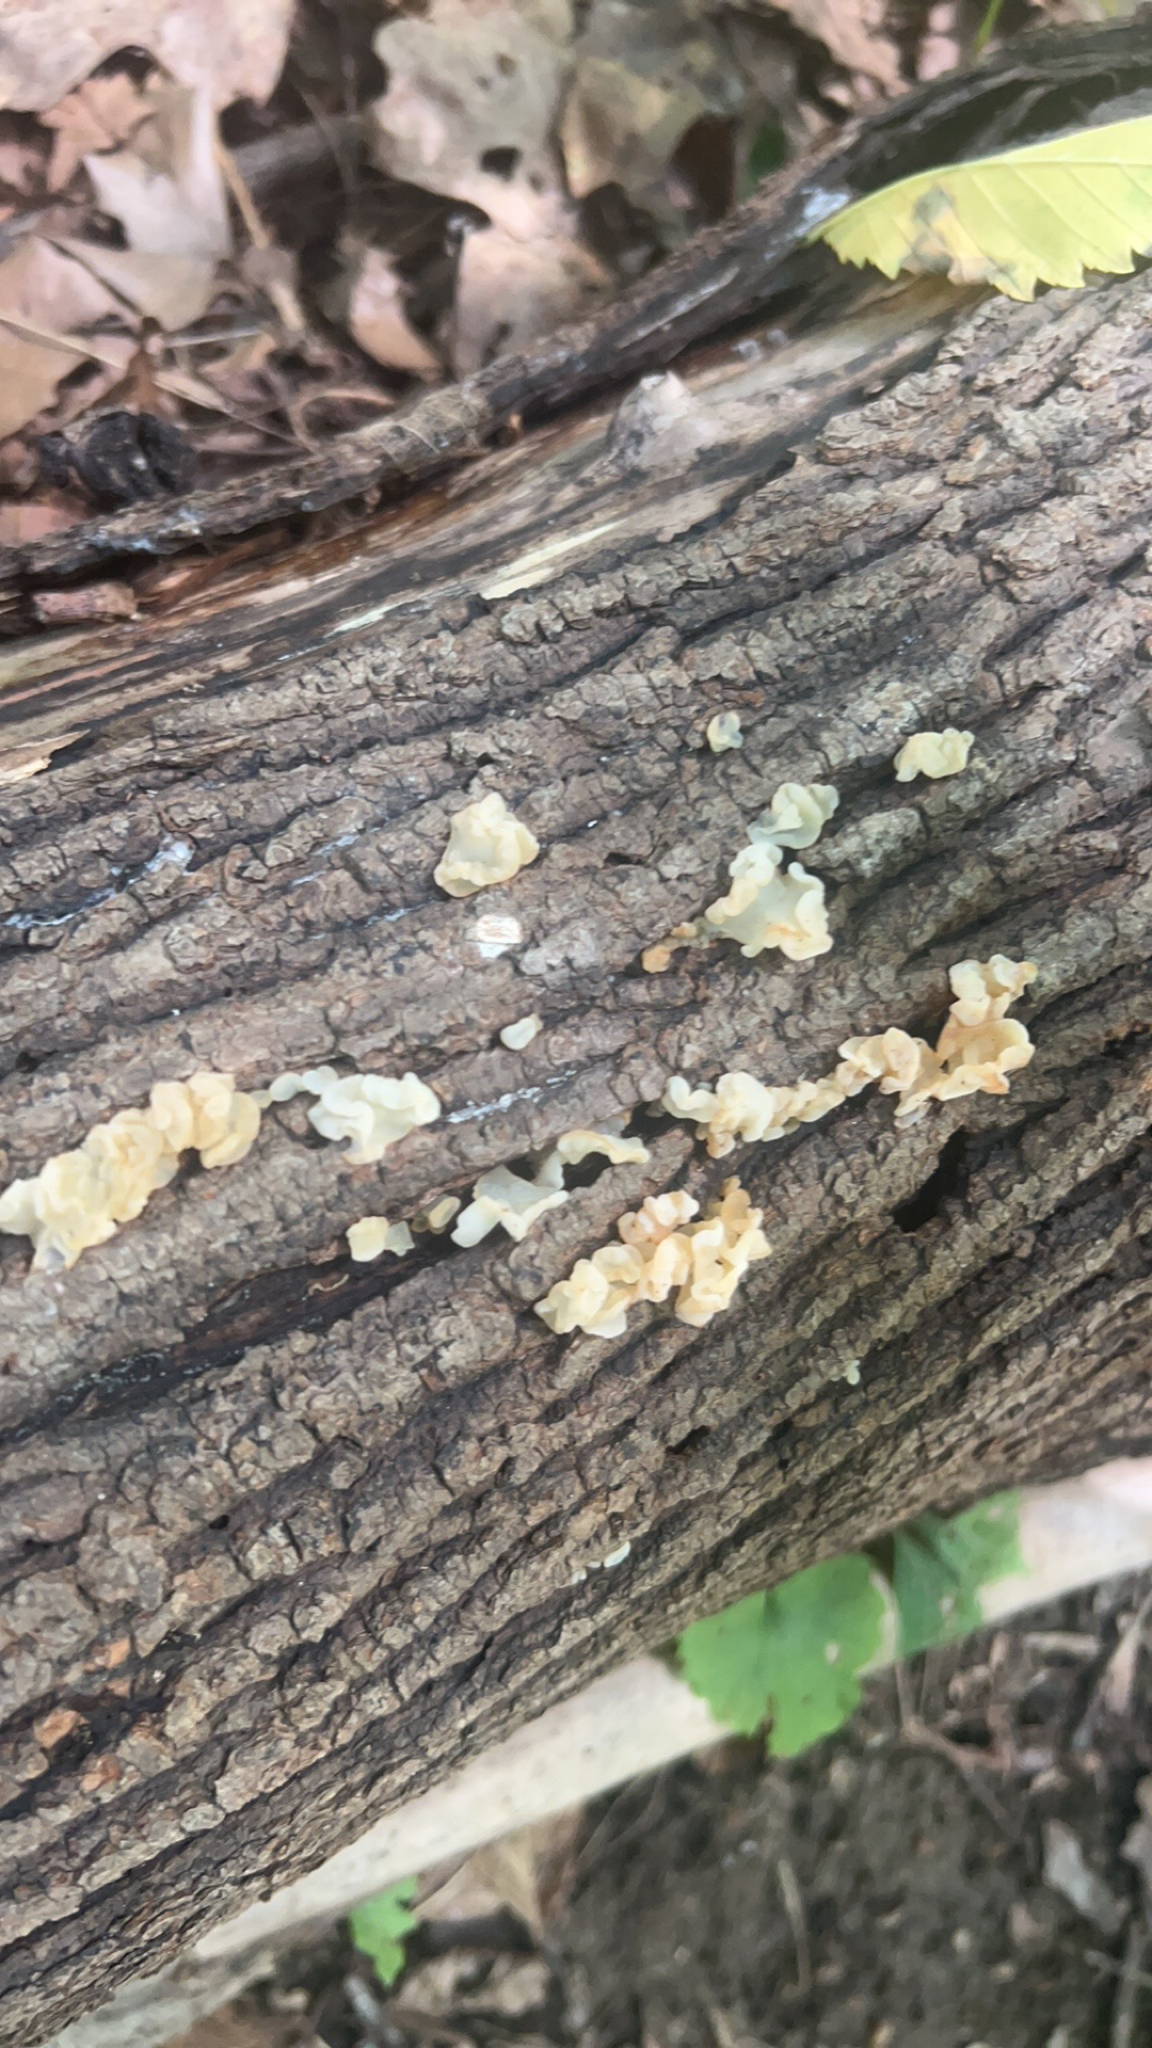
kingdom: Fungi
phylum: Basidiomycota
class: Agaricomycetes
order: Auriculariales
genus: Ductifera
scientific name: Ductifera pululahuana
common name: White jelly fungus
